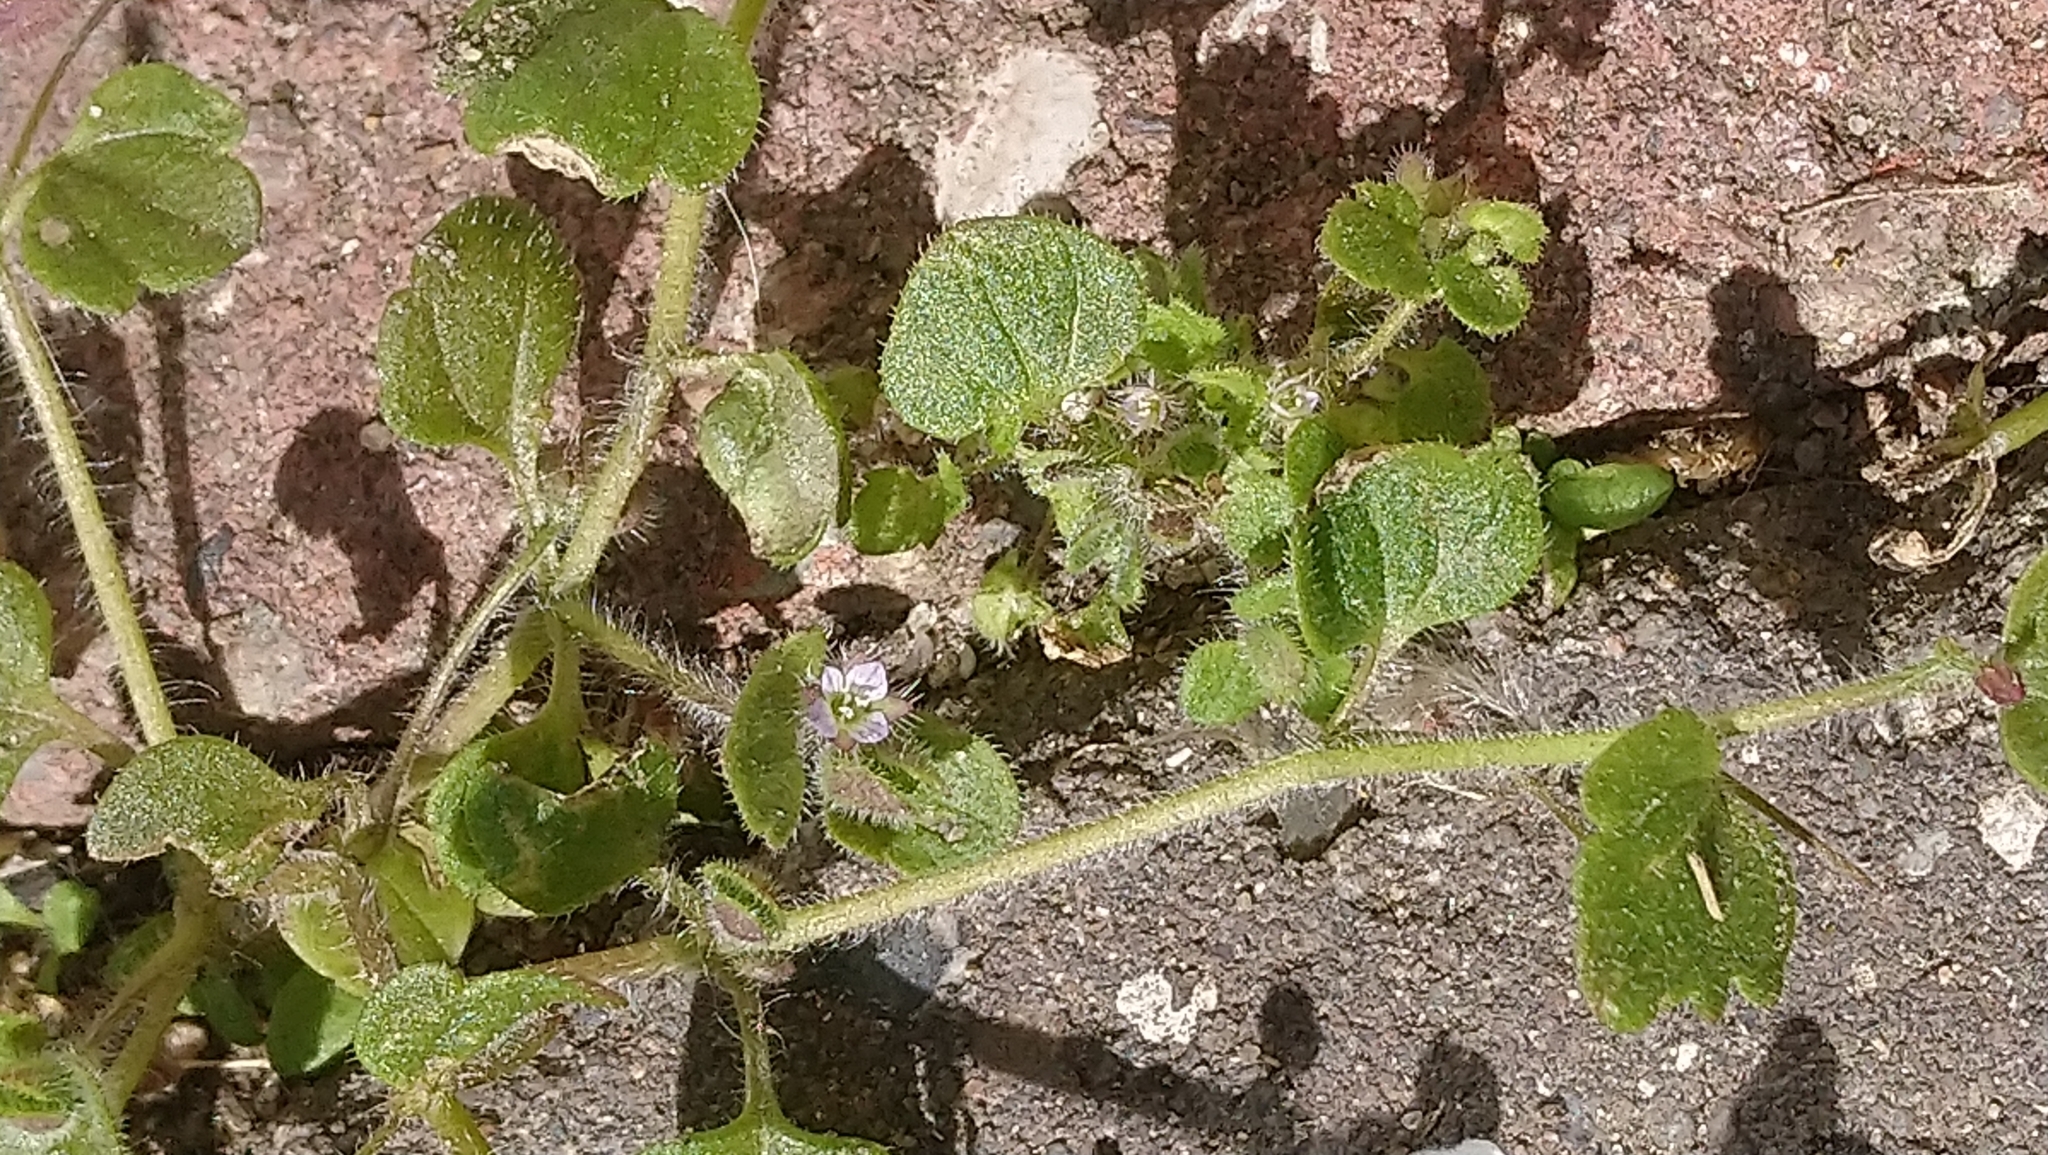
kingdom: Plantae
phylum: Tracheophyta
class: Magnoliopsida
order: Lamiales
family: Plantaginaceae
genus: Veronica
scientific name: Veronica sublobata
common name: False ivy-leaved speedwell
